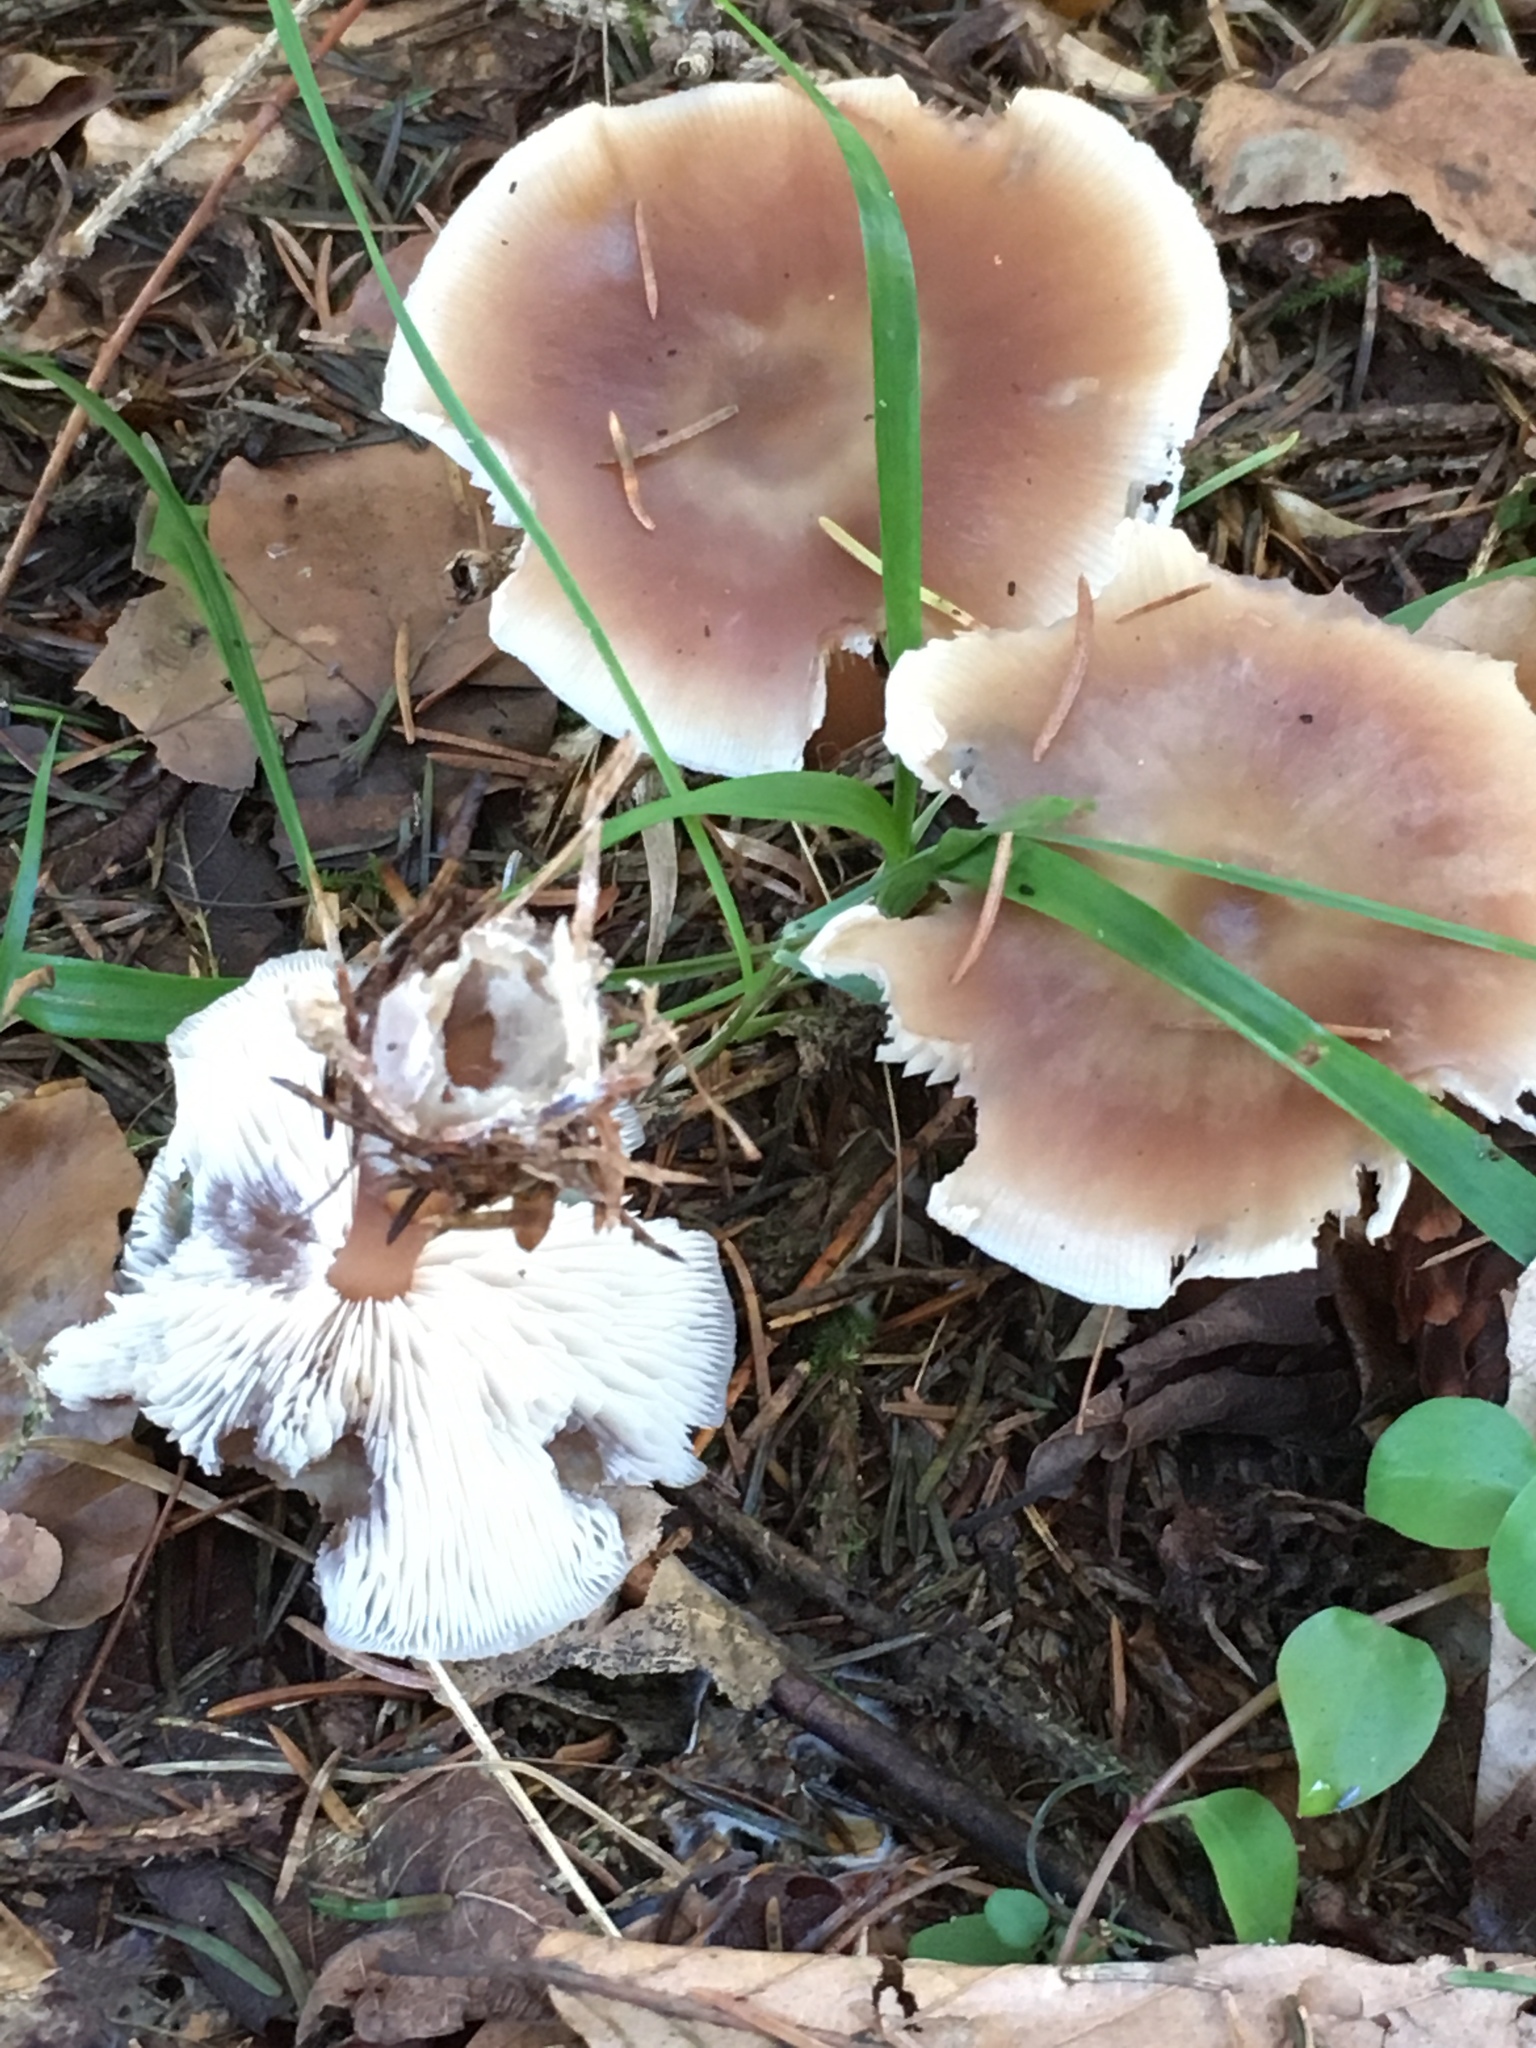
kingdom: Fungi
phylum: Basidiomycota
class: Agaricomycetes
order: Agaricales
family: Omphalotaceae
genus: Rhodocollybia
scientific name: Rhodocollybia butyracea
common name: Butter cap
